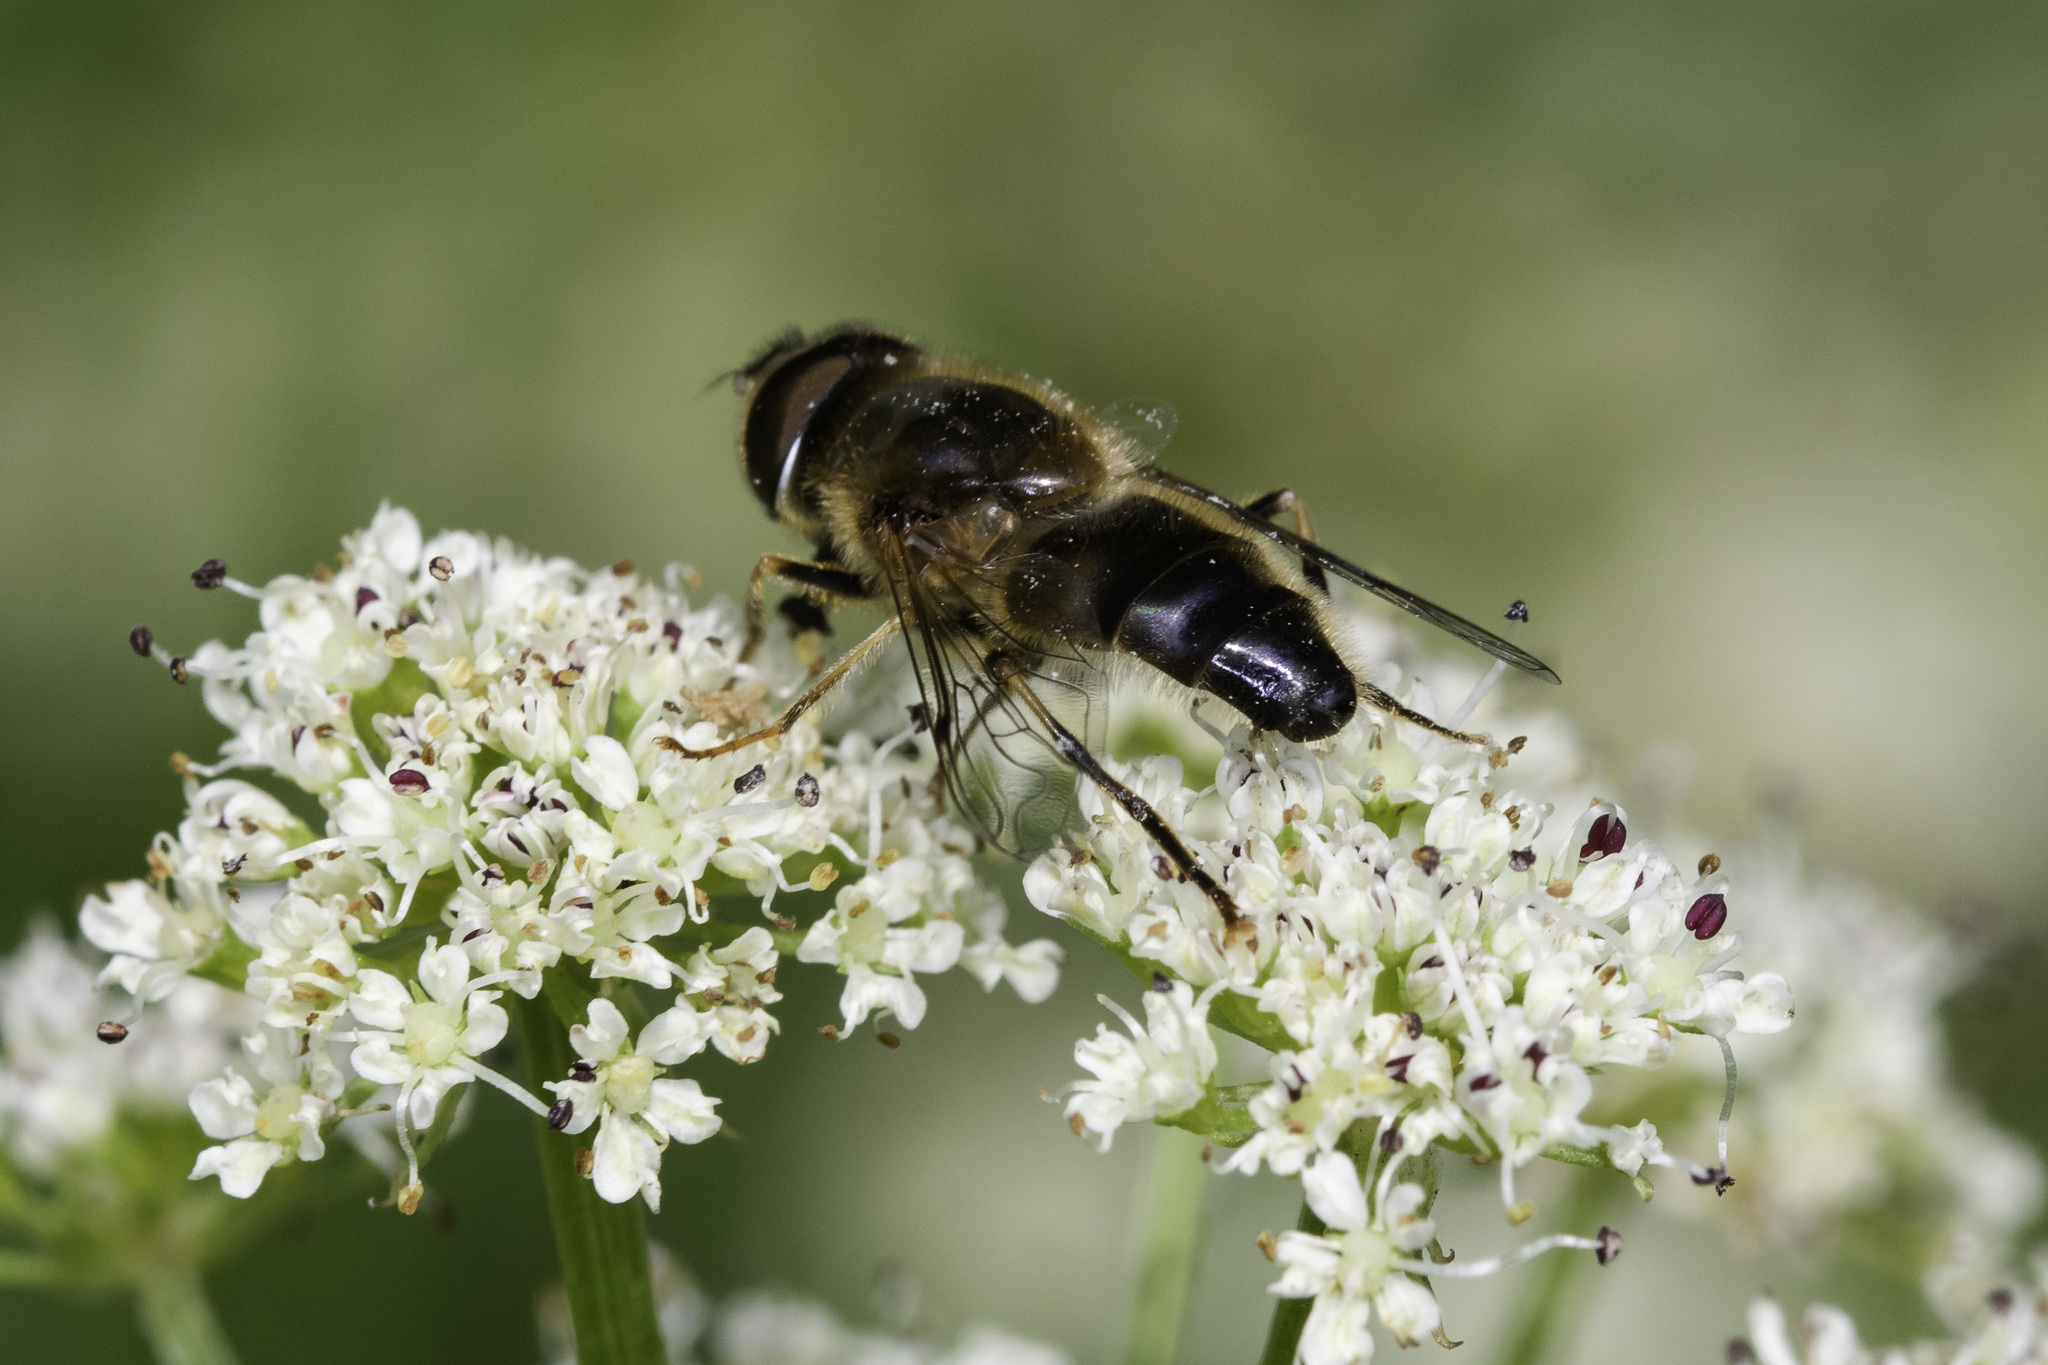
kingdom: Animalia
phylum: Arthropoda
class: Insecta
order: Diptera
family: Syrphidae
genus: Eristalis
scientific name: Eristalis pertinax
